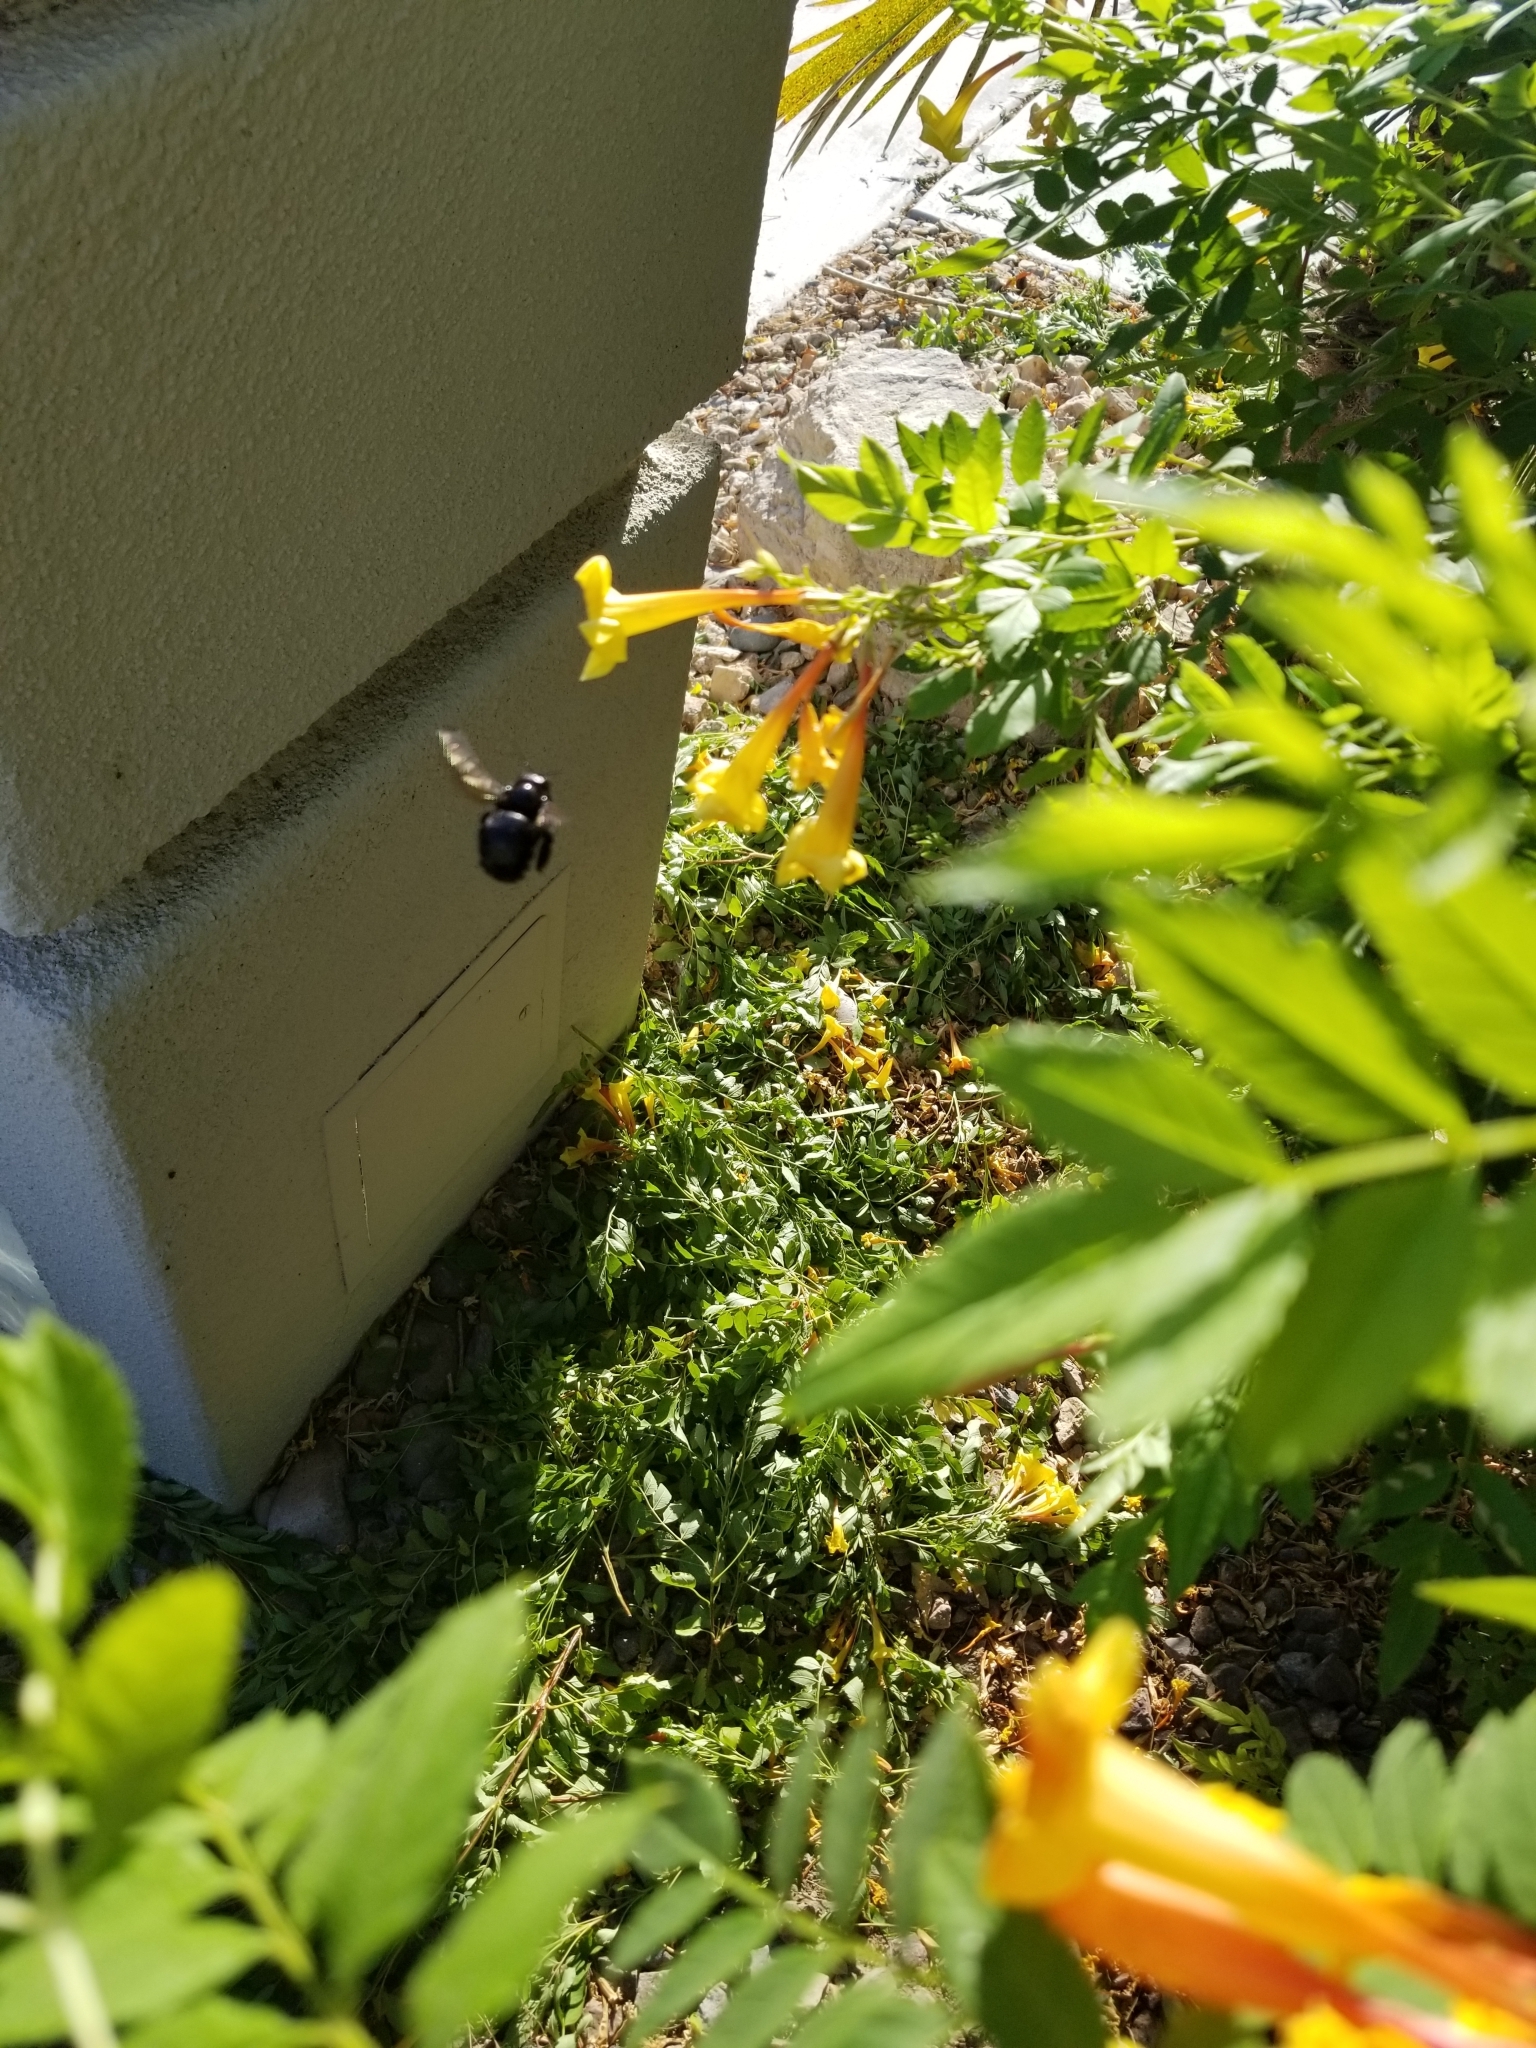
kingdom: Animalia
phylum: Arthropoda
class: Insecta
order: Hymenoptera
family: Apidae
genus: Xylocopa
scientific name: Xylocopa californica
